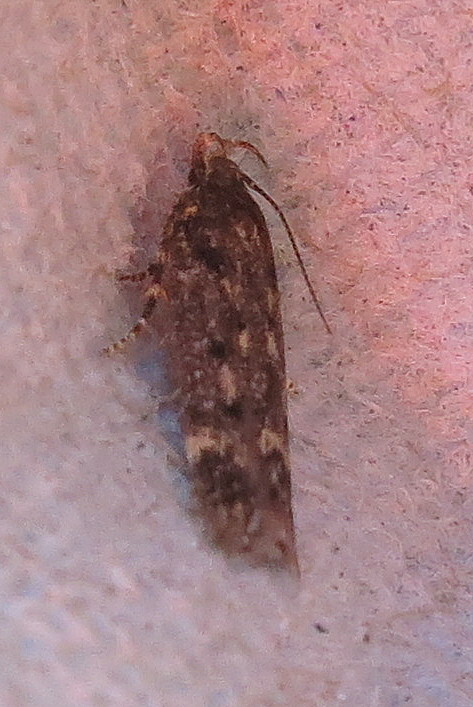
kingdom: Animalia
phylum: Arthropoda
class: Insecta
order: Lepidoptera
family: Gelechiidae
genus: Bryotropha
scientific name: Bryotropha affinis
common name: Dark groundling
